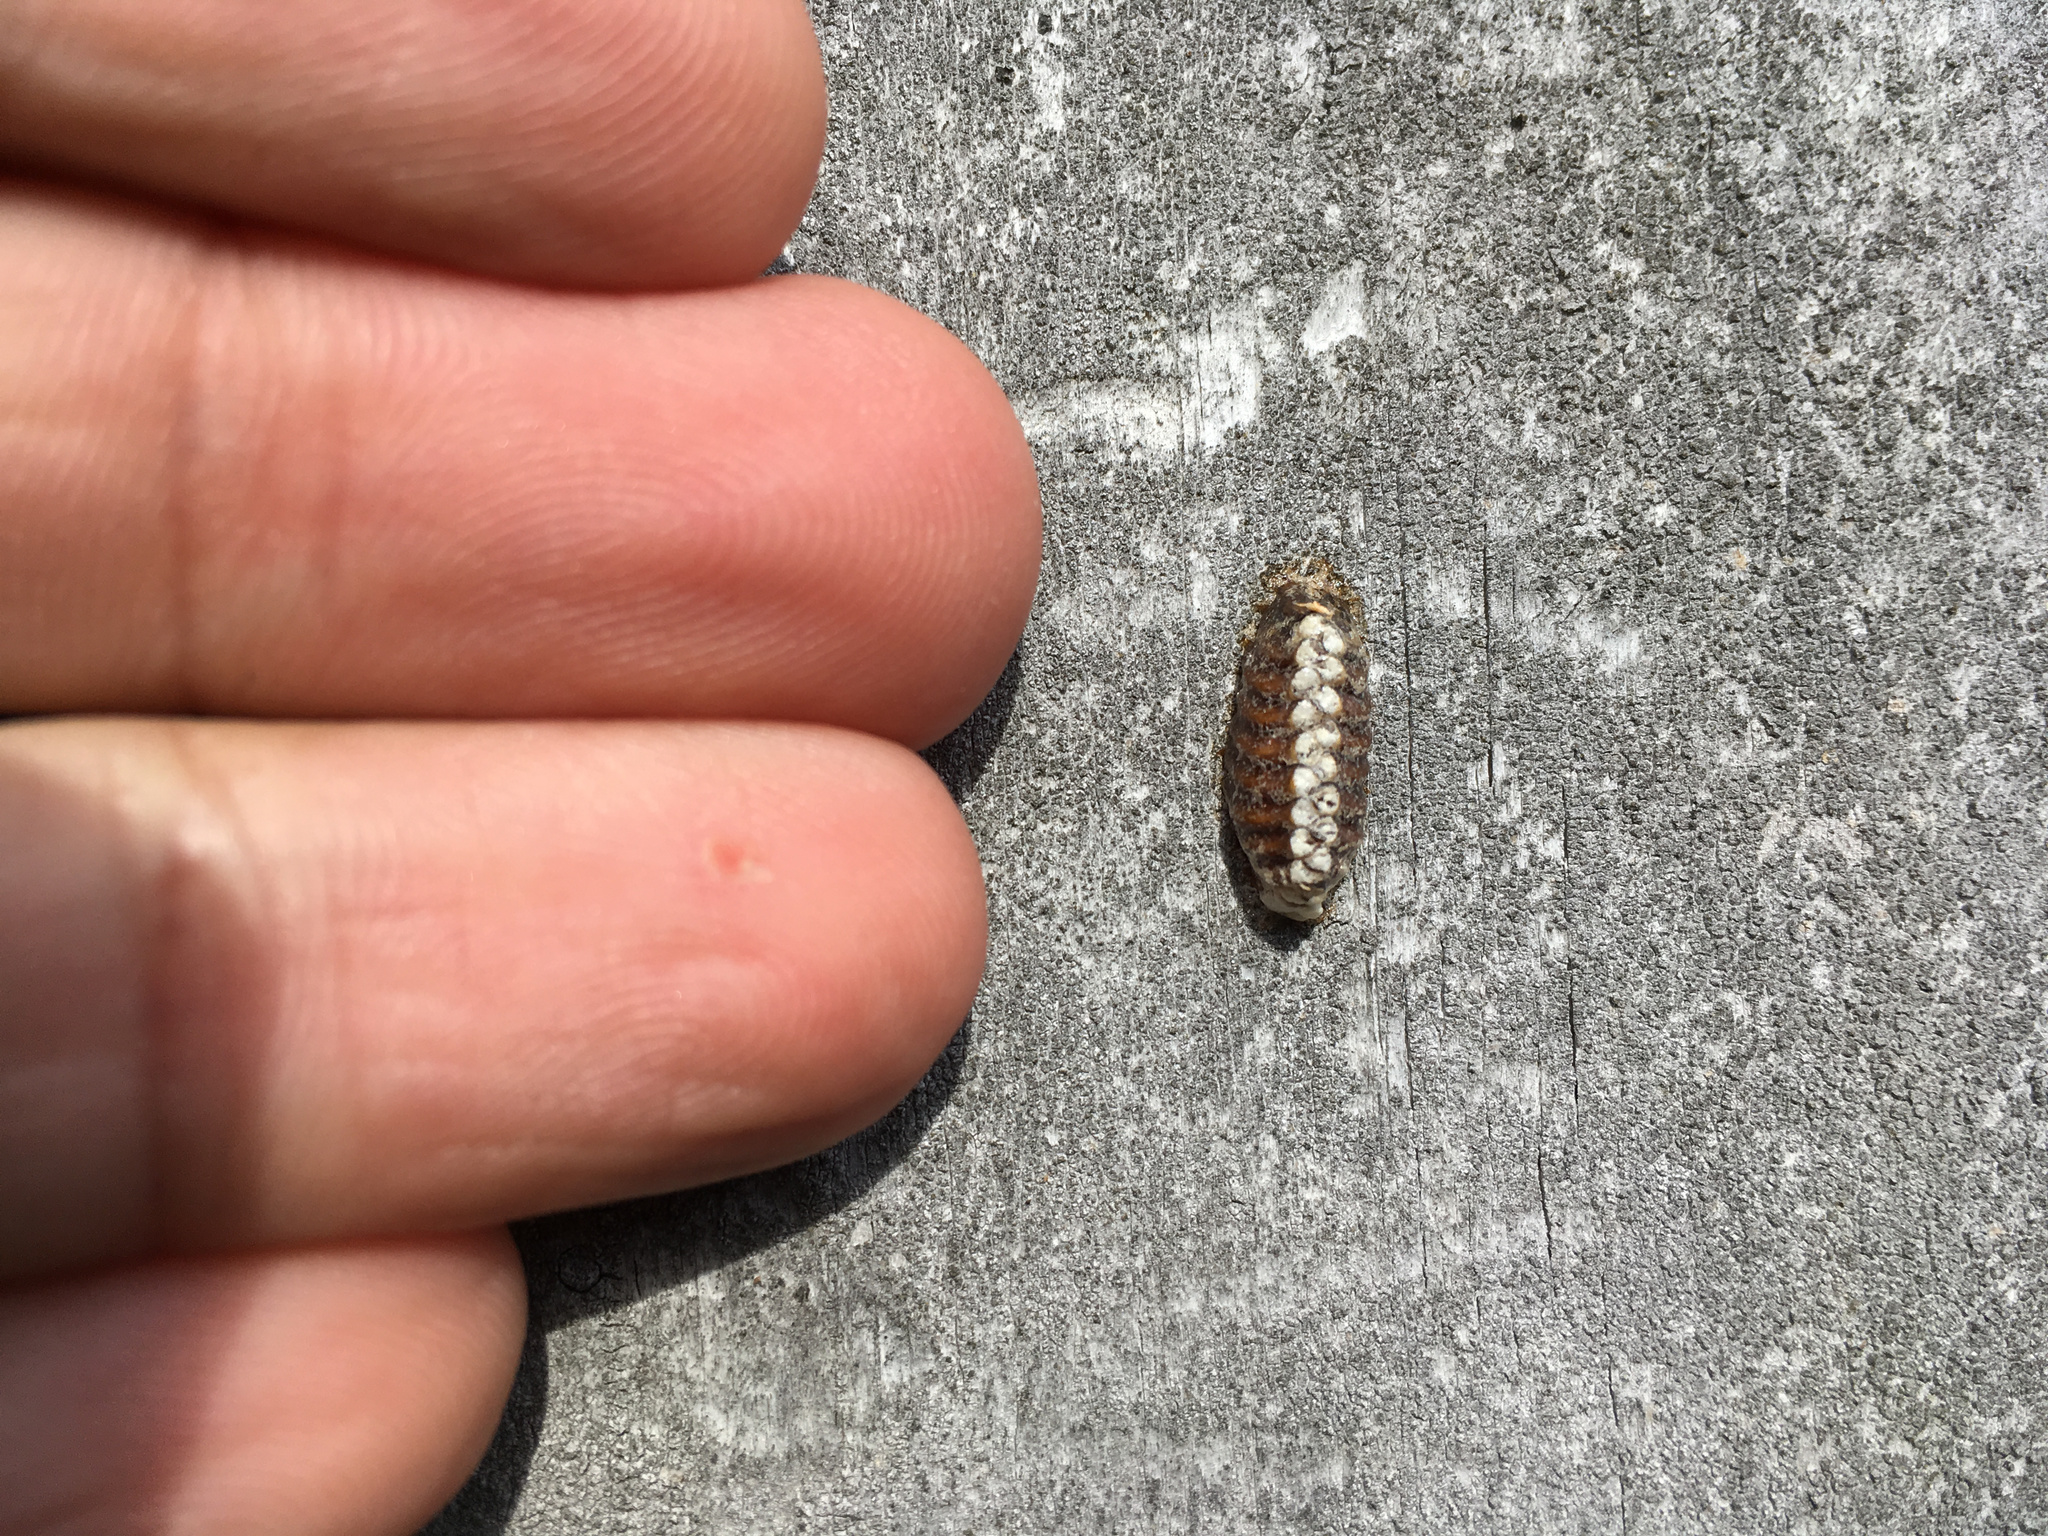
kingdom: Animalia
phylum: Arthropoda
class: Insecta
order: Mantodea
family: Mantidae
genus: Orthodera
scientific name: Orthodera novaezealandiae
